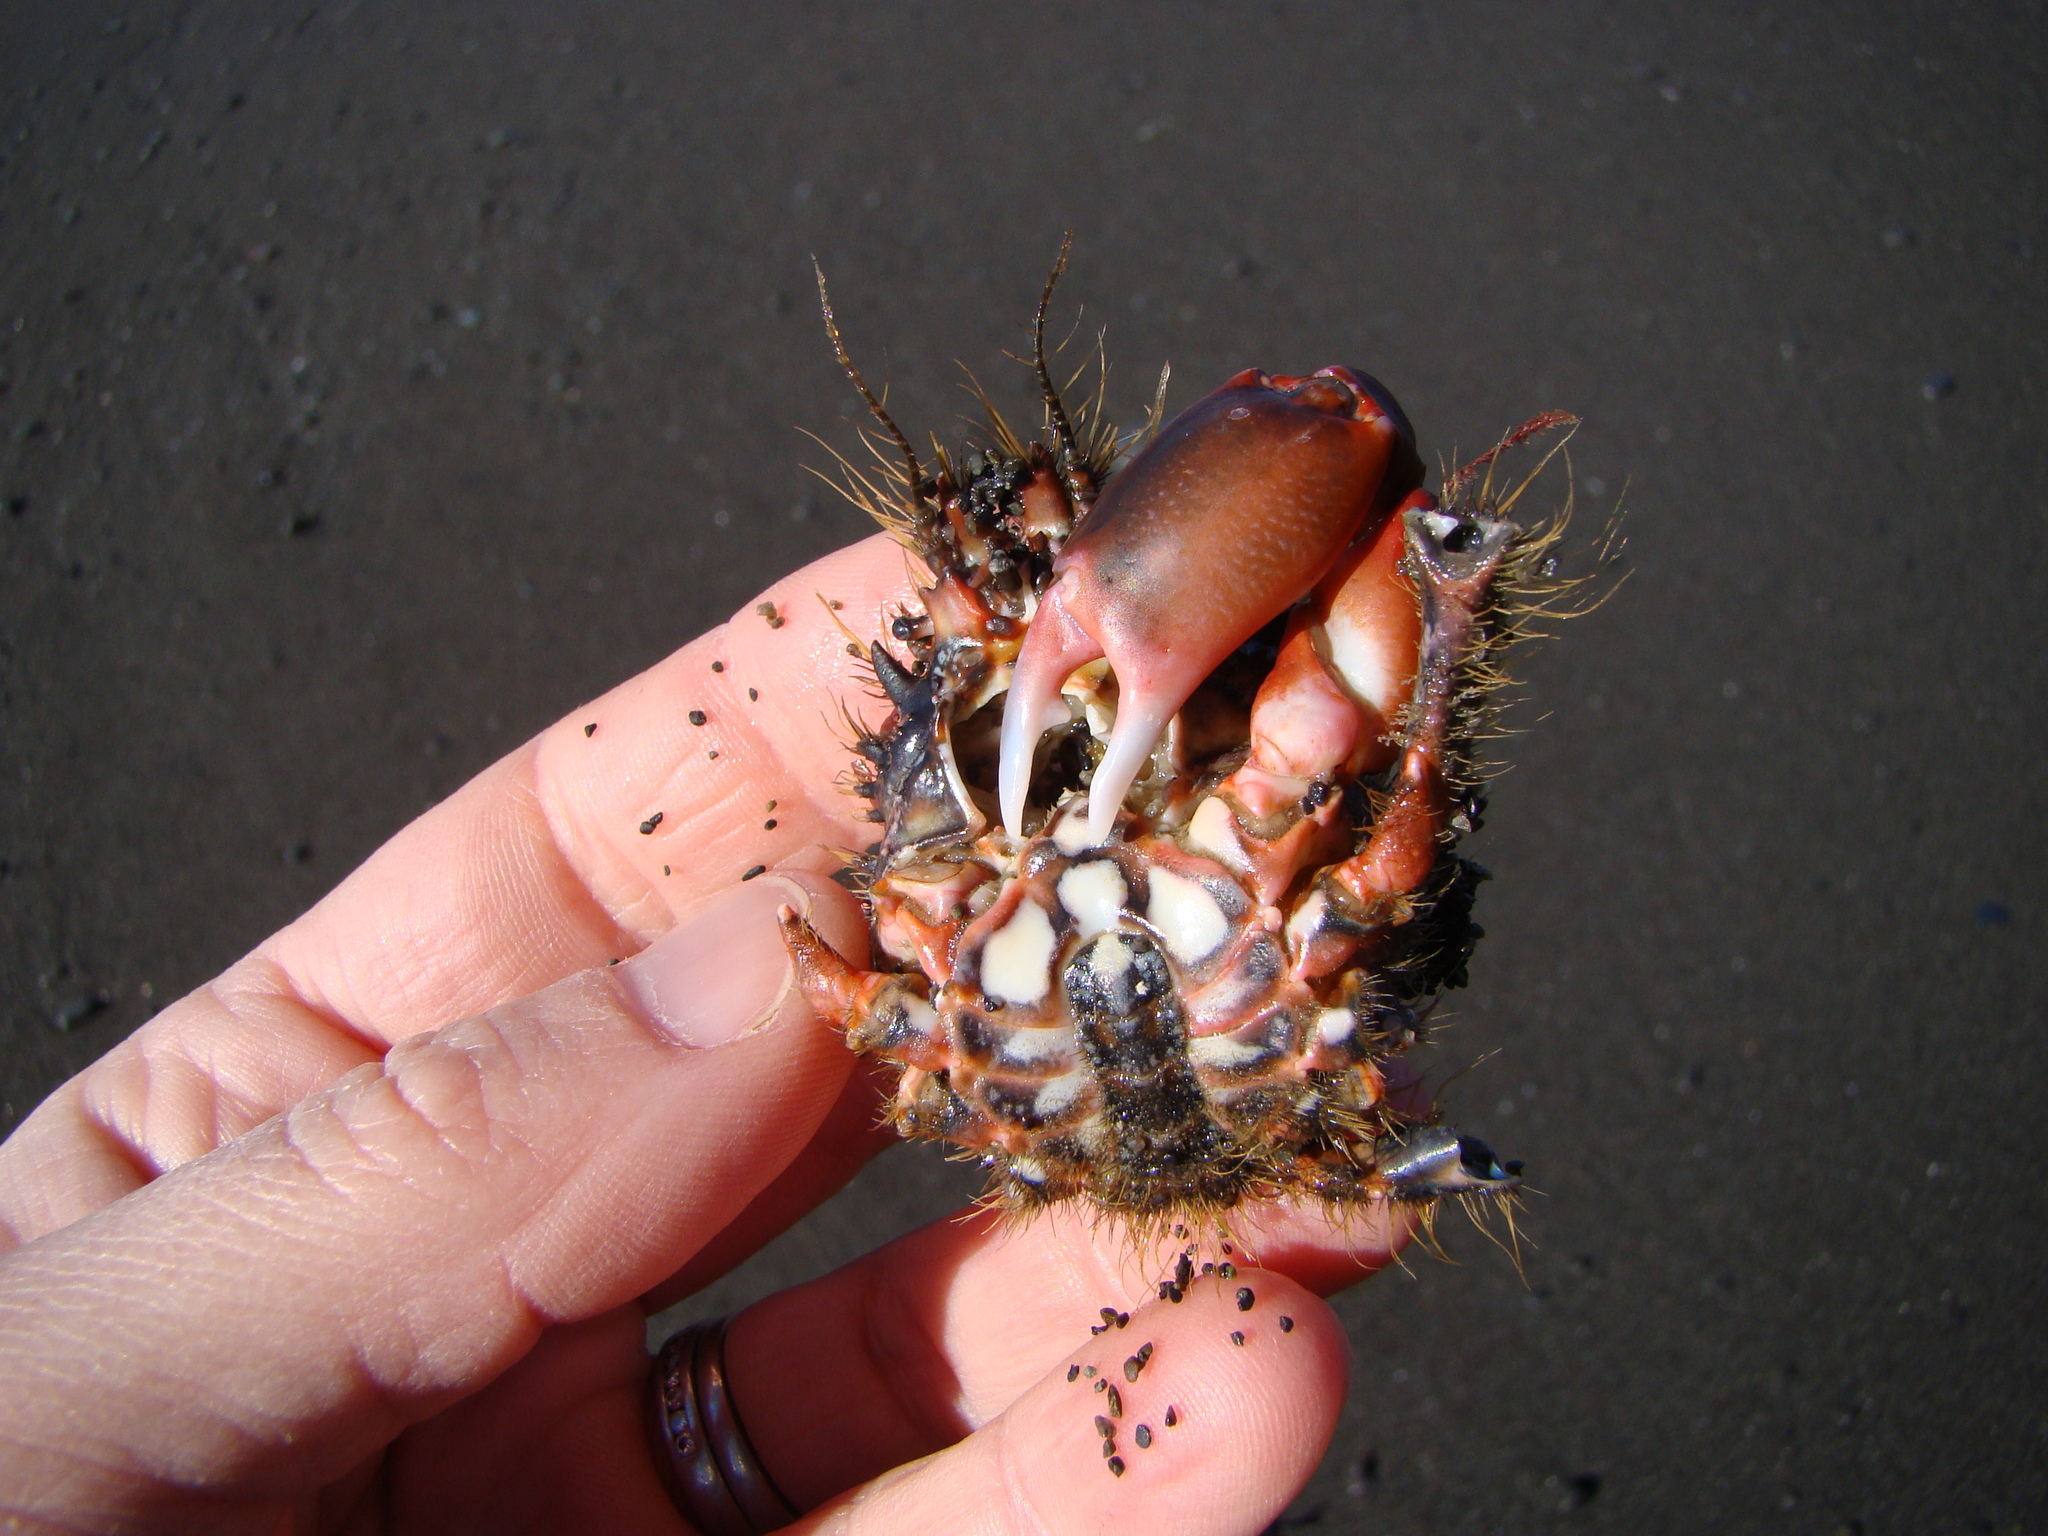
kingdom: Animalia
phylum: Arthropoda
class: Malacostraca
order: Decapoda
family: Majidae
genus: Notomithrax
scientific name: Notomithrax ursus
